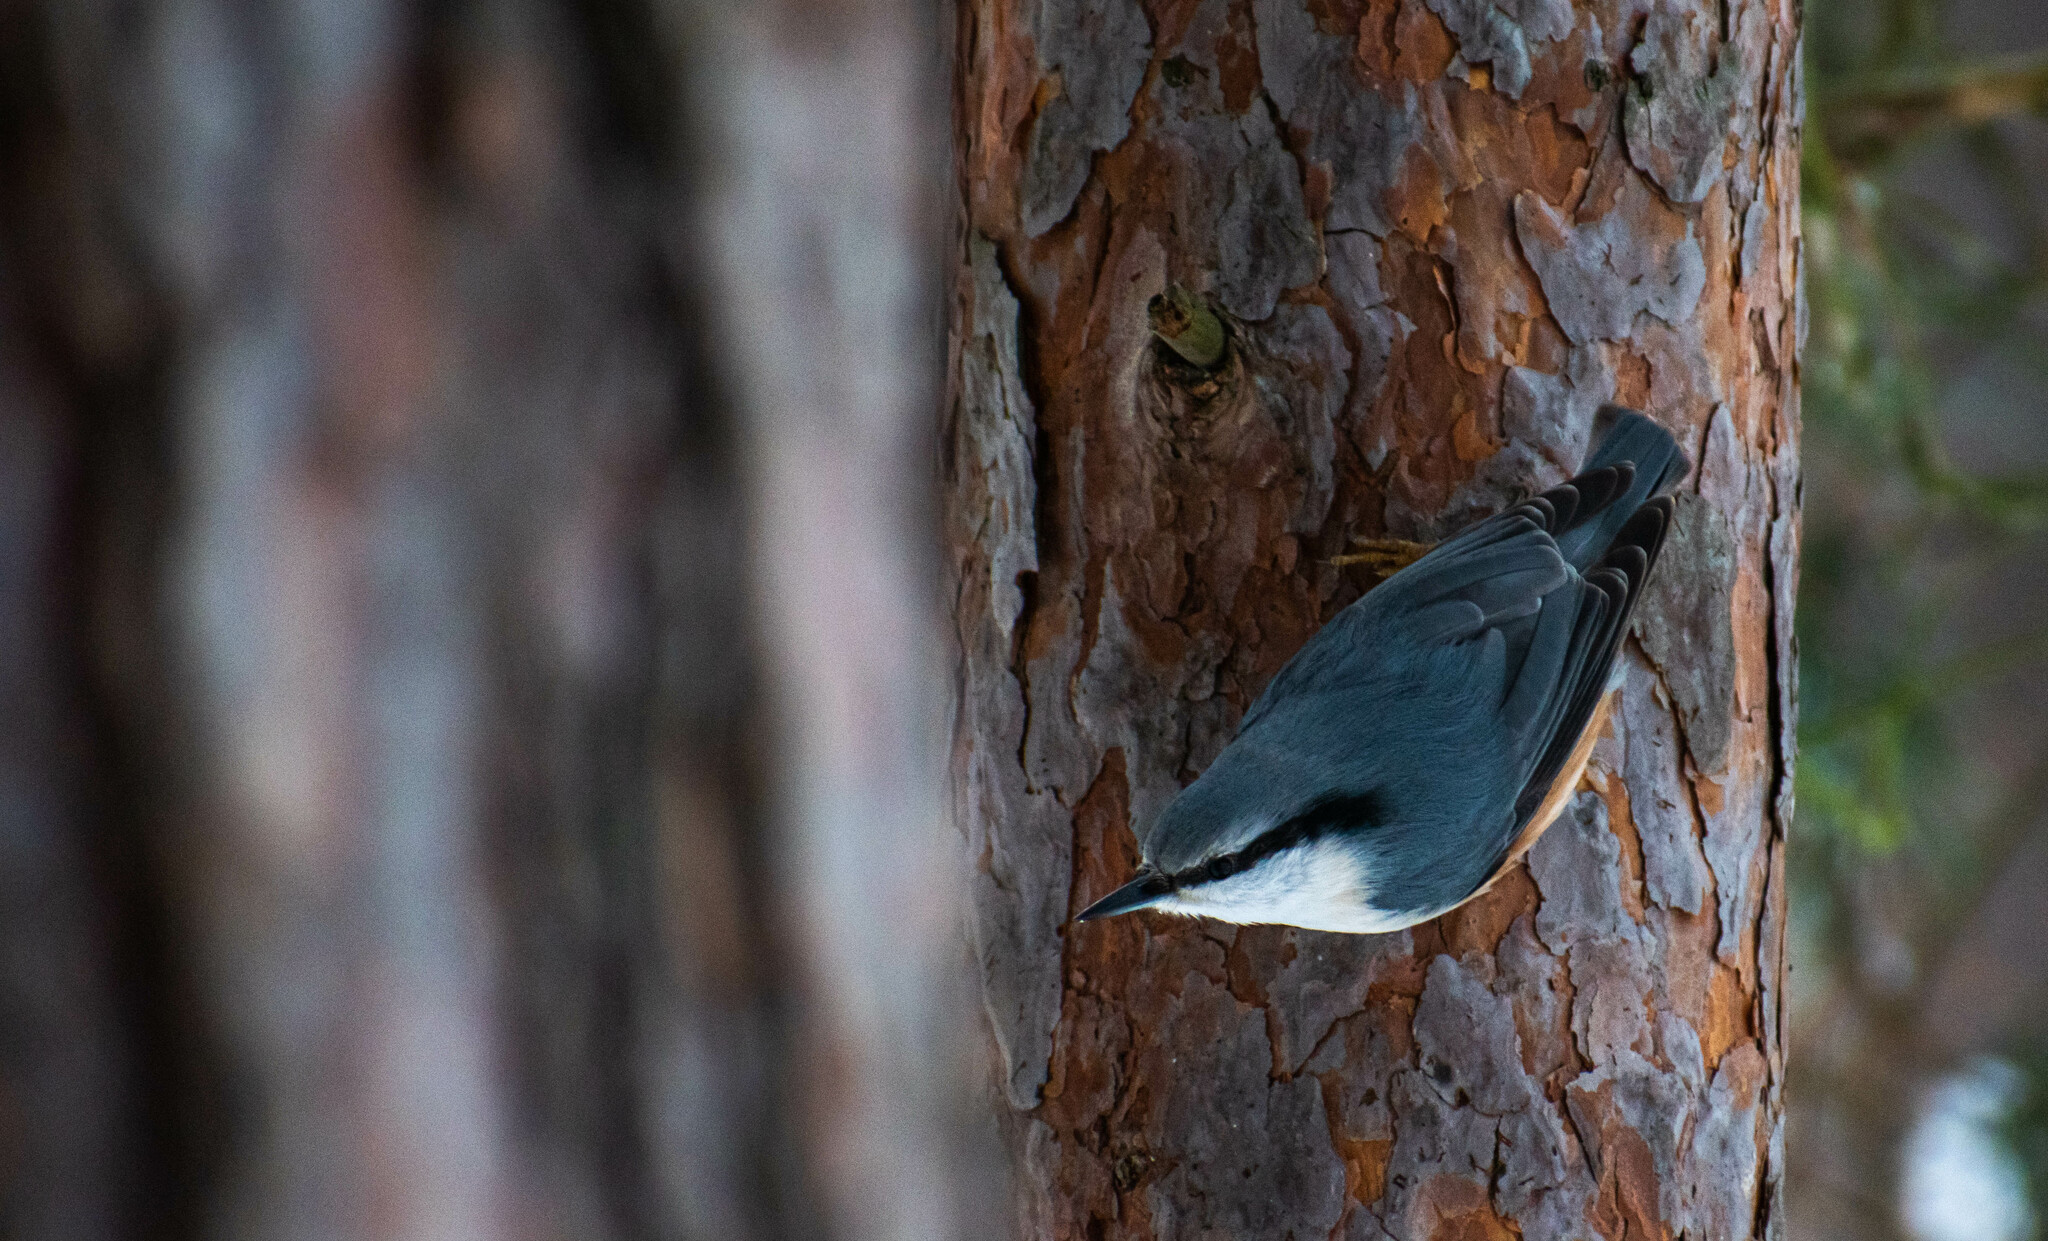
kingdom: Animalia
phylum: Chordata
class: Aves
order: Passeriformes
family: Sittidae
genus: Sitta
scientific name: Sitta europaea
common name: Eurasian nuthatch
